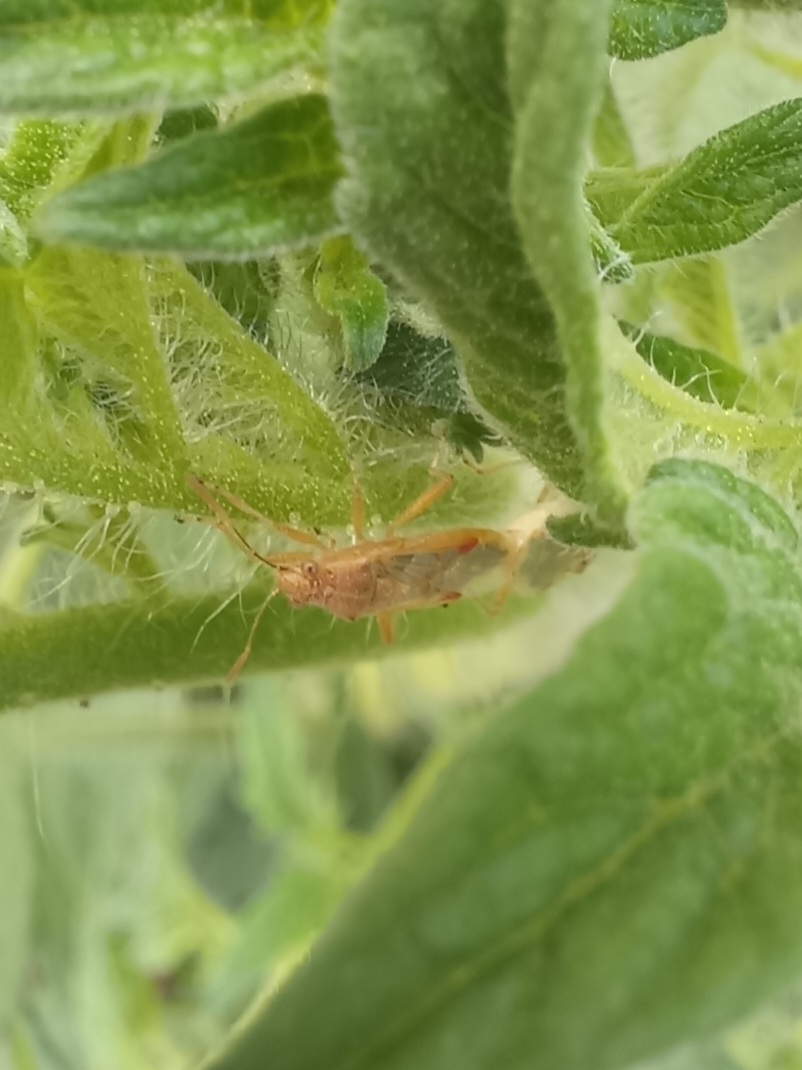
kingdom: Animalia
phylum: Arthropoda
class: Insecta
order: Hemiptera
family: Rhopalidae
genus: Liorhyssus
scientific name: Liorhyssus hyalinus
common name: Scentless plant bug
